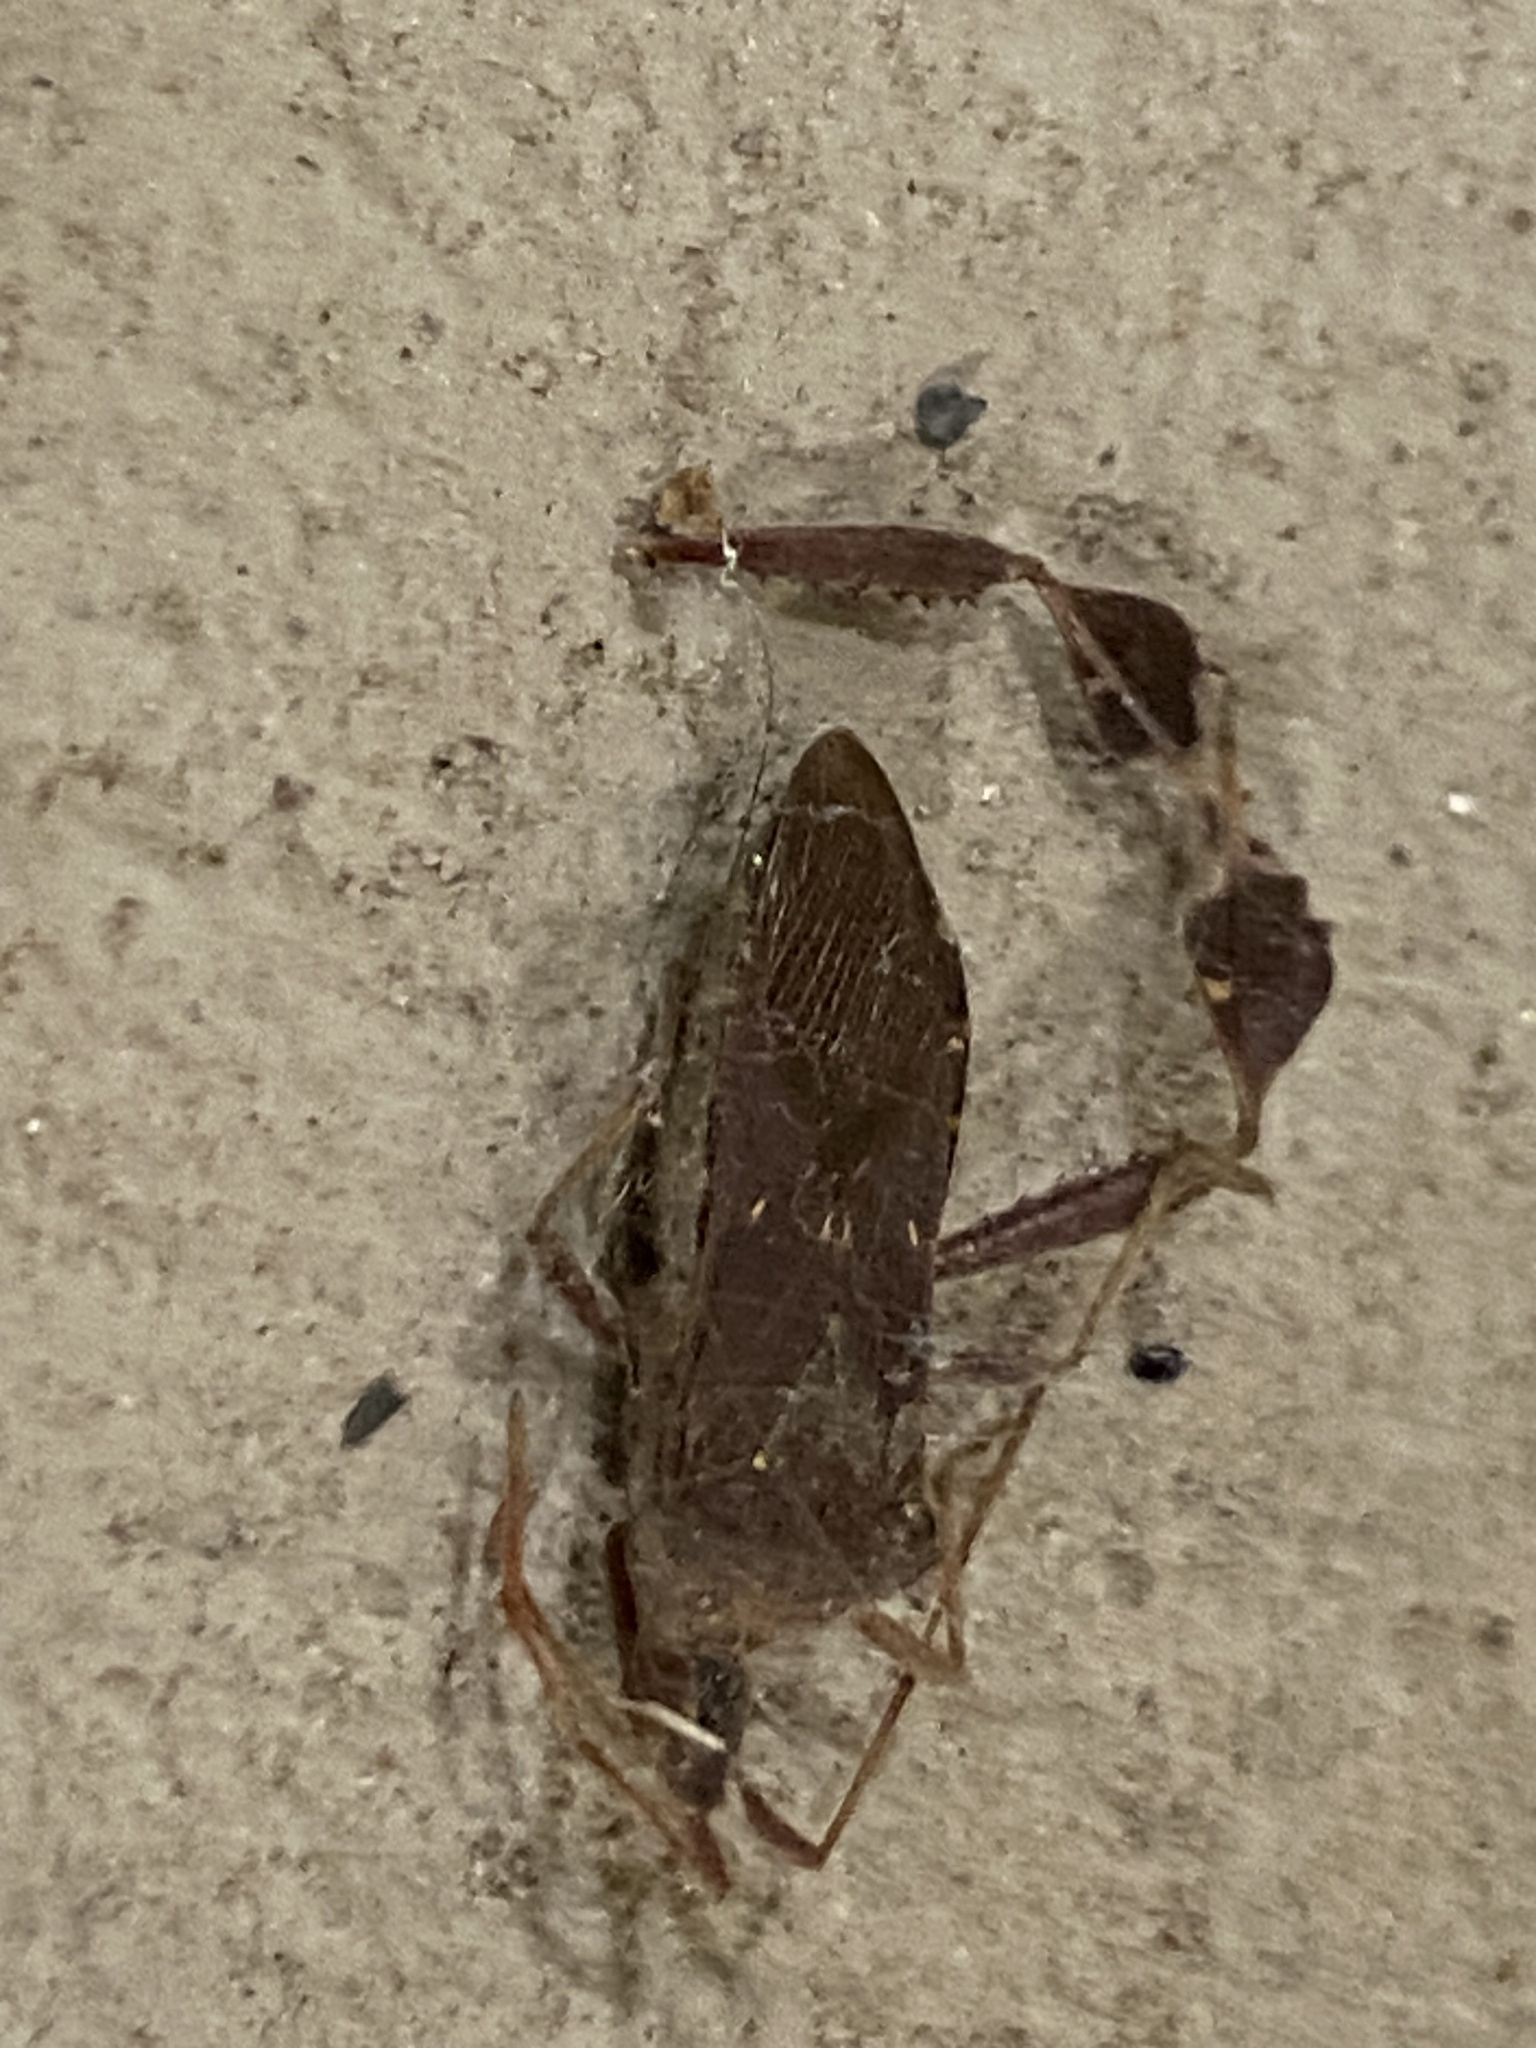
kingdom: Animalia
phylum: Arthropoda
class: Insecta
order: Hemiptera
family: Coreidae
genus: Leptoglossus
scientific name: Leptoglossus oppositus
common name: Northern leaf-footed bug
